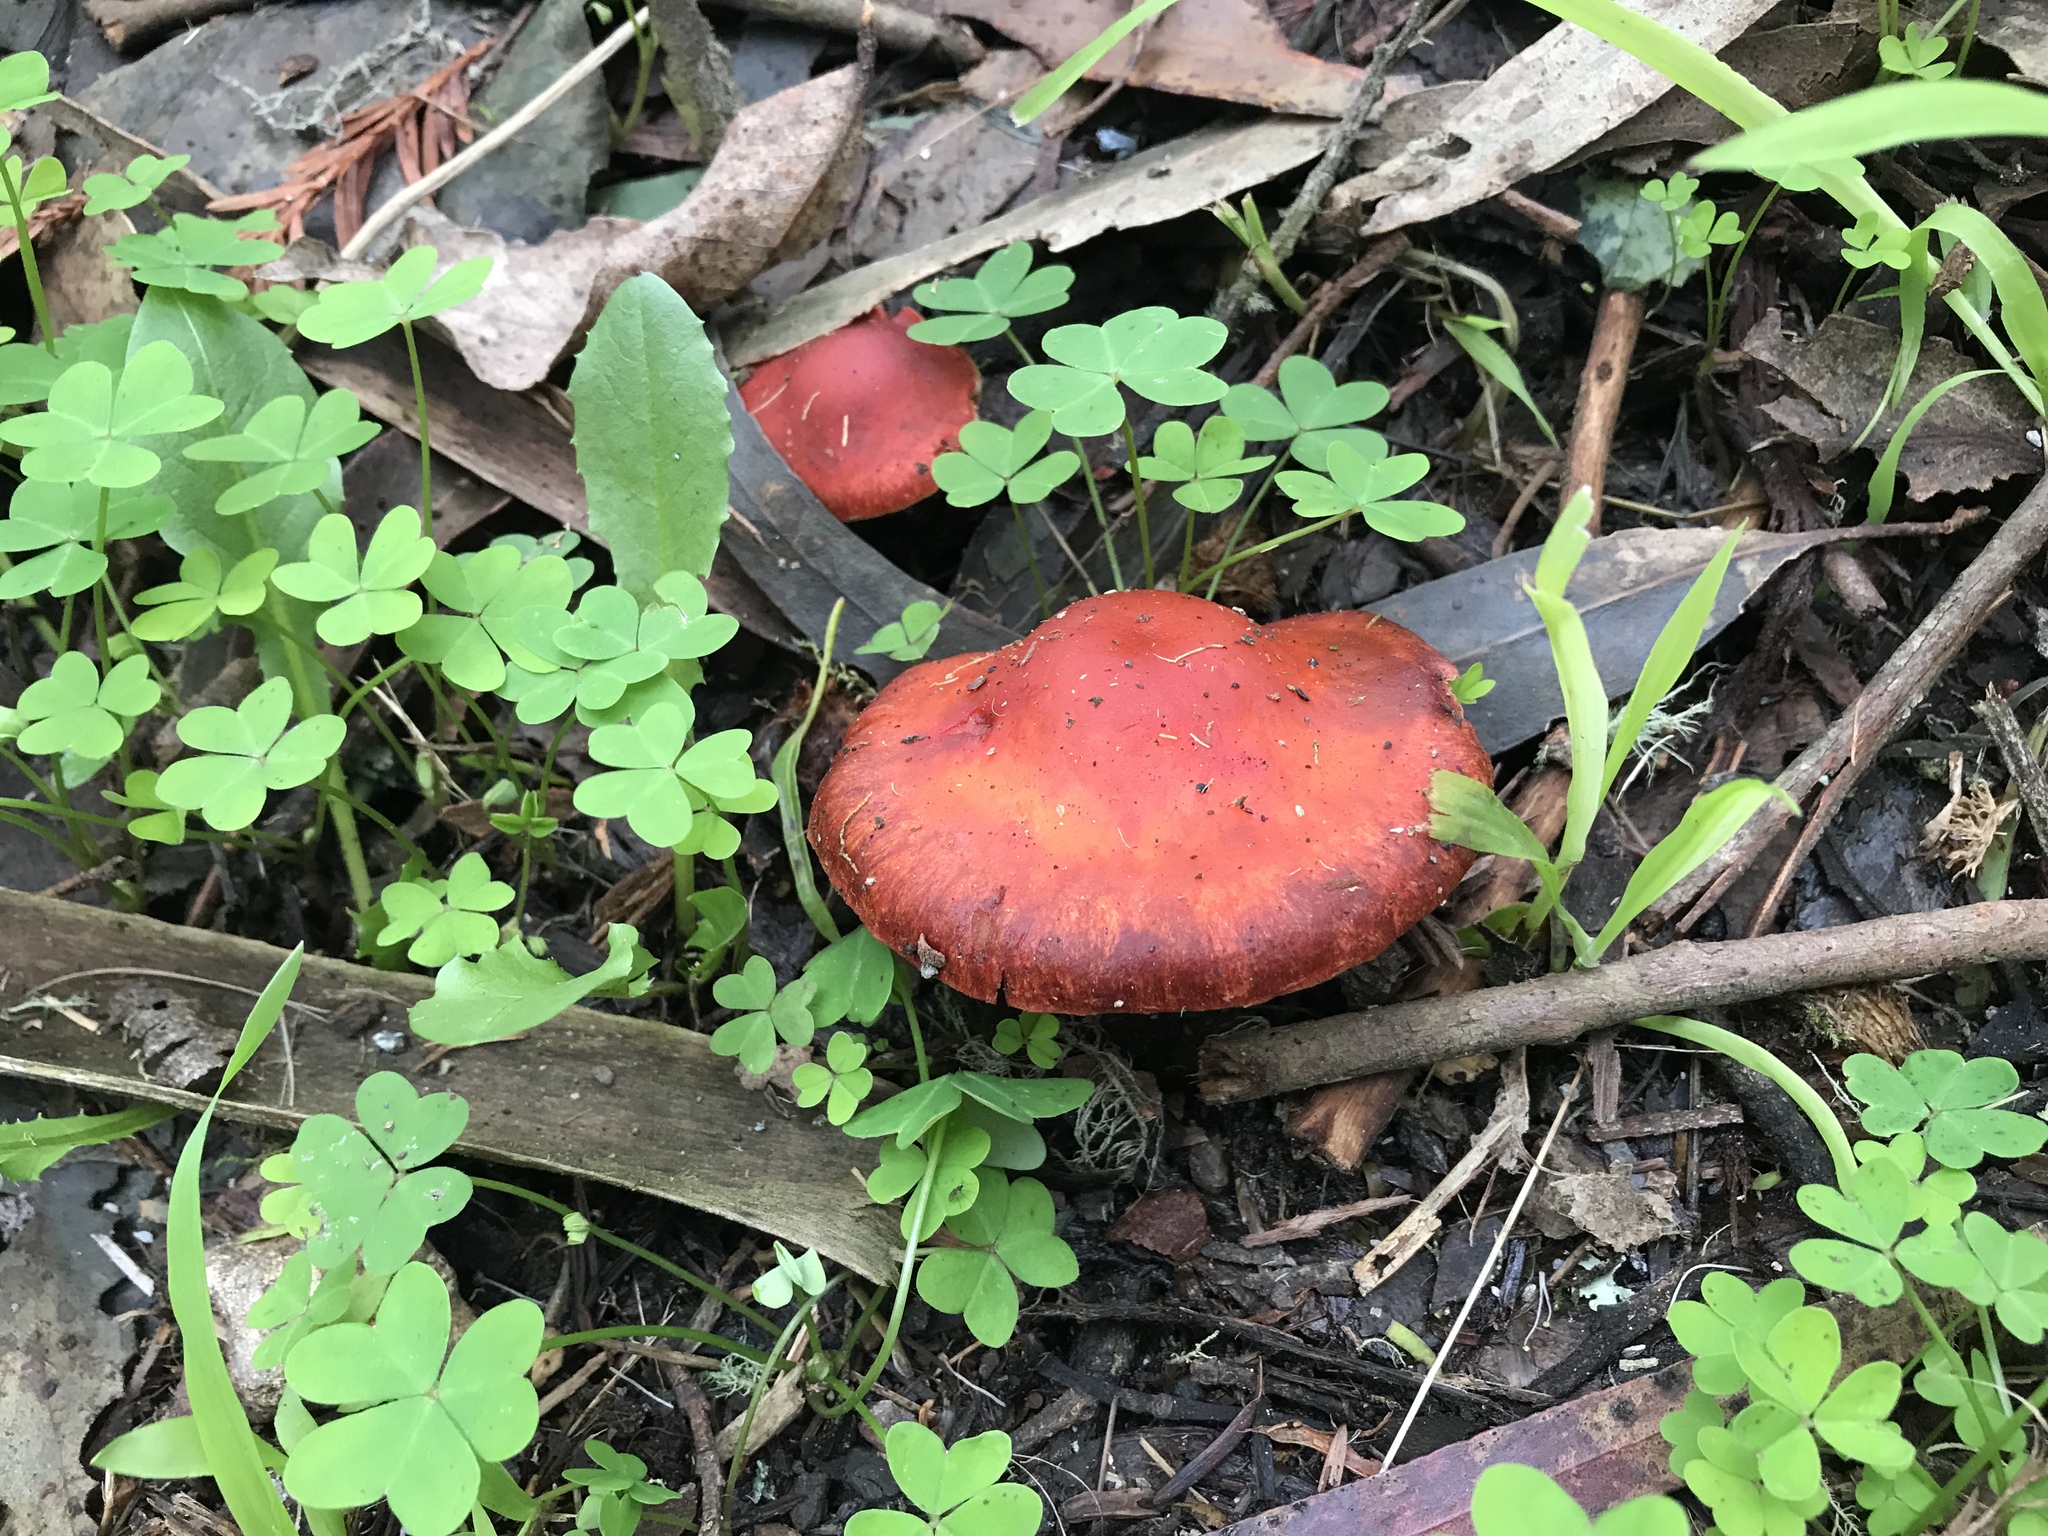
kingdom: Fungi
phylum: Basidiomycota
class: Agaricomycetes
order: Agaricales
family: Strophariaceae
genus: Leratiomyces
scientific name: Leratiomyces ceres
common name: Redlead roundhead
